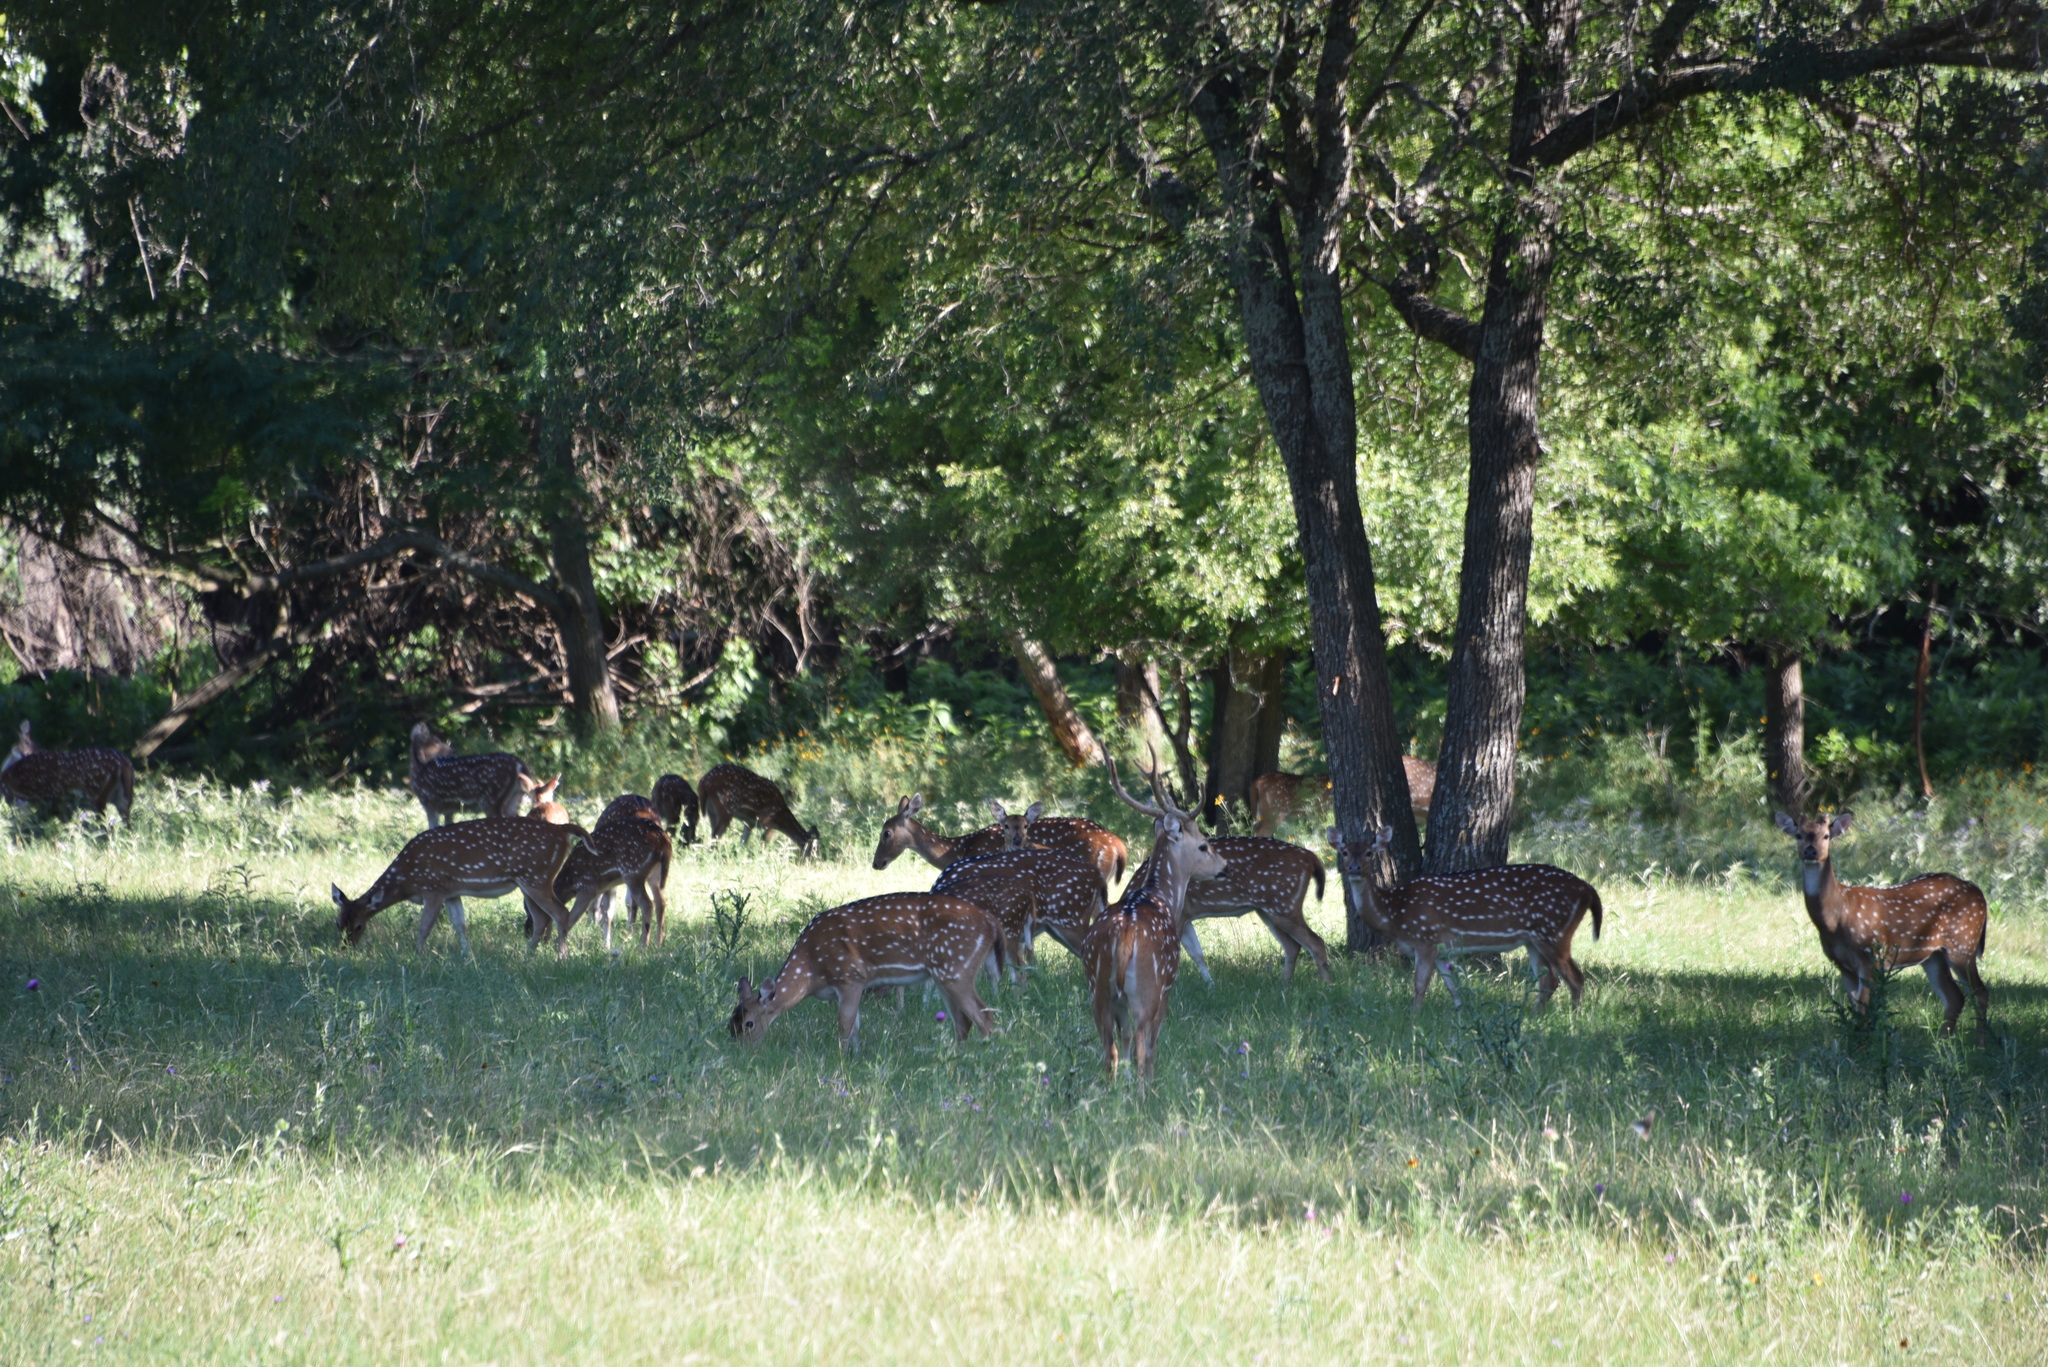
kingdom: Animalia
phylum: Chordata
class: Mammalia
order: Artiodactyla
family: Cervidae
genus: Axis
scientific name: Axis axis
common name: Chital
